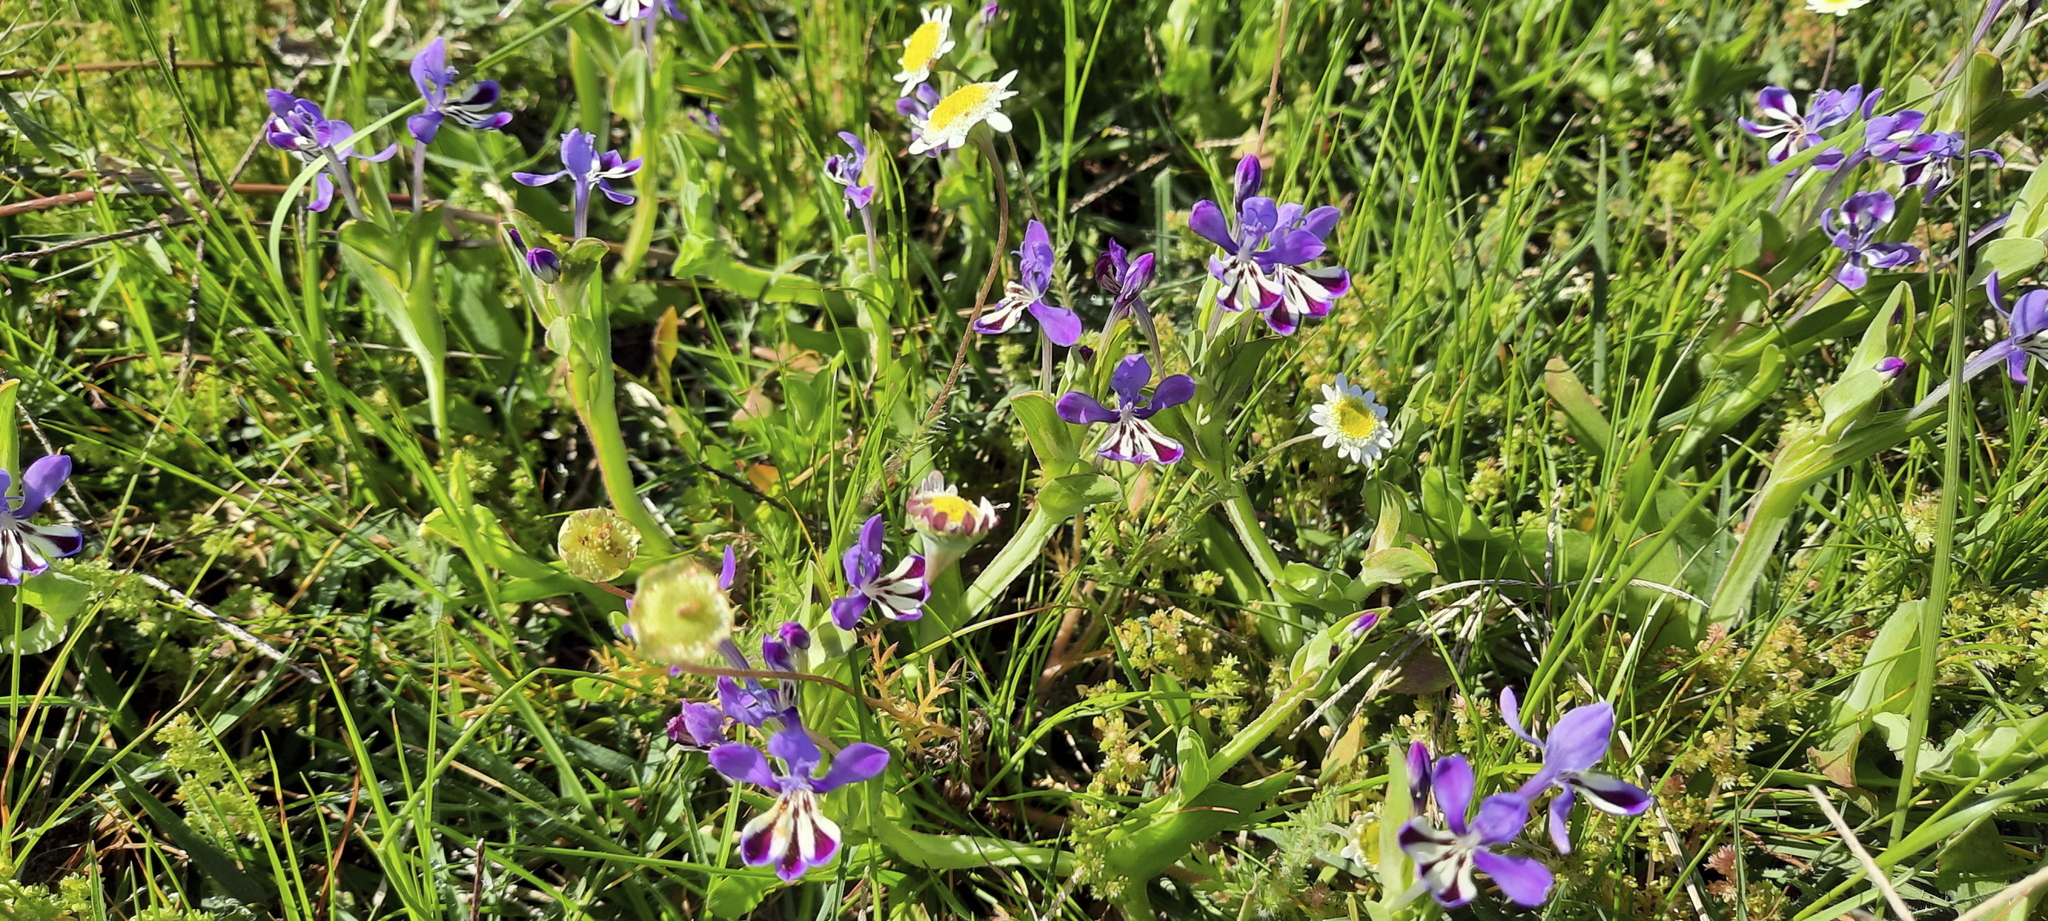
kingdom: Plantae
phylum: Tracheophyta
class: Liliopsida
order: Asparagales
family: Iridaceae
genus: Lapeirousia
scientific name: Lapeirousia jacquinii
